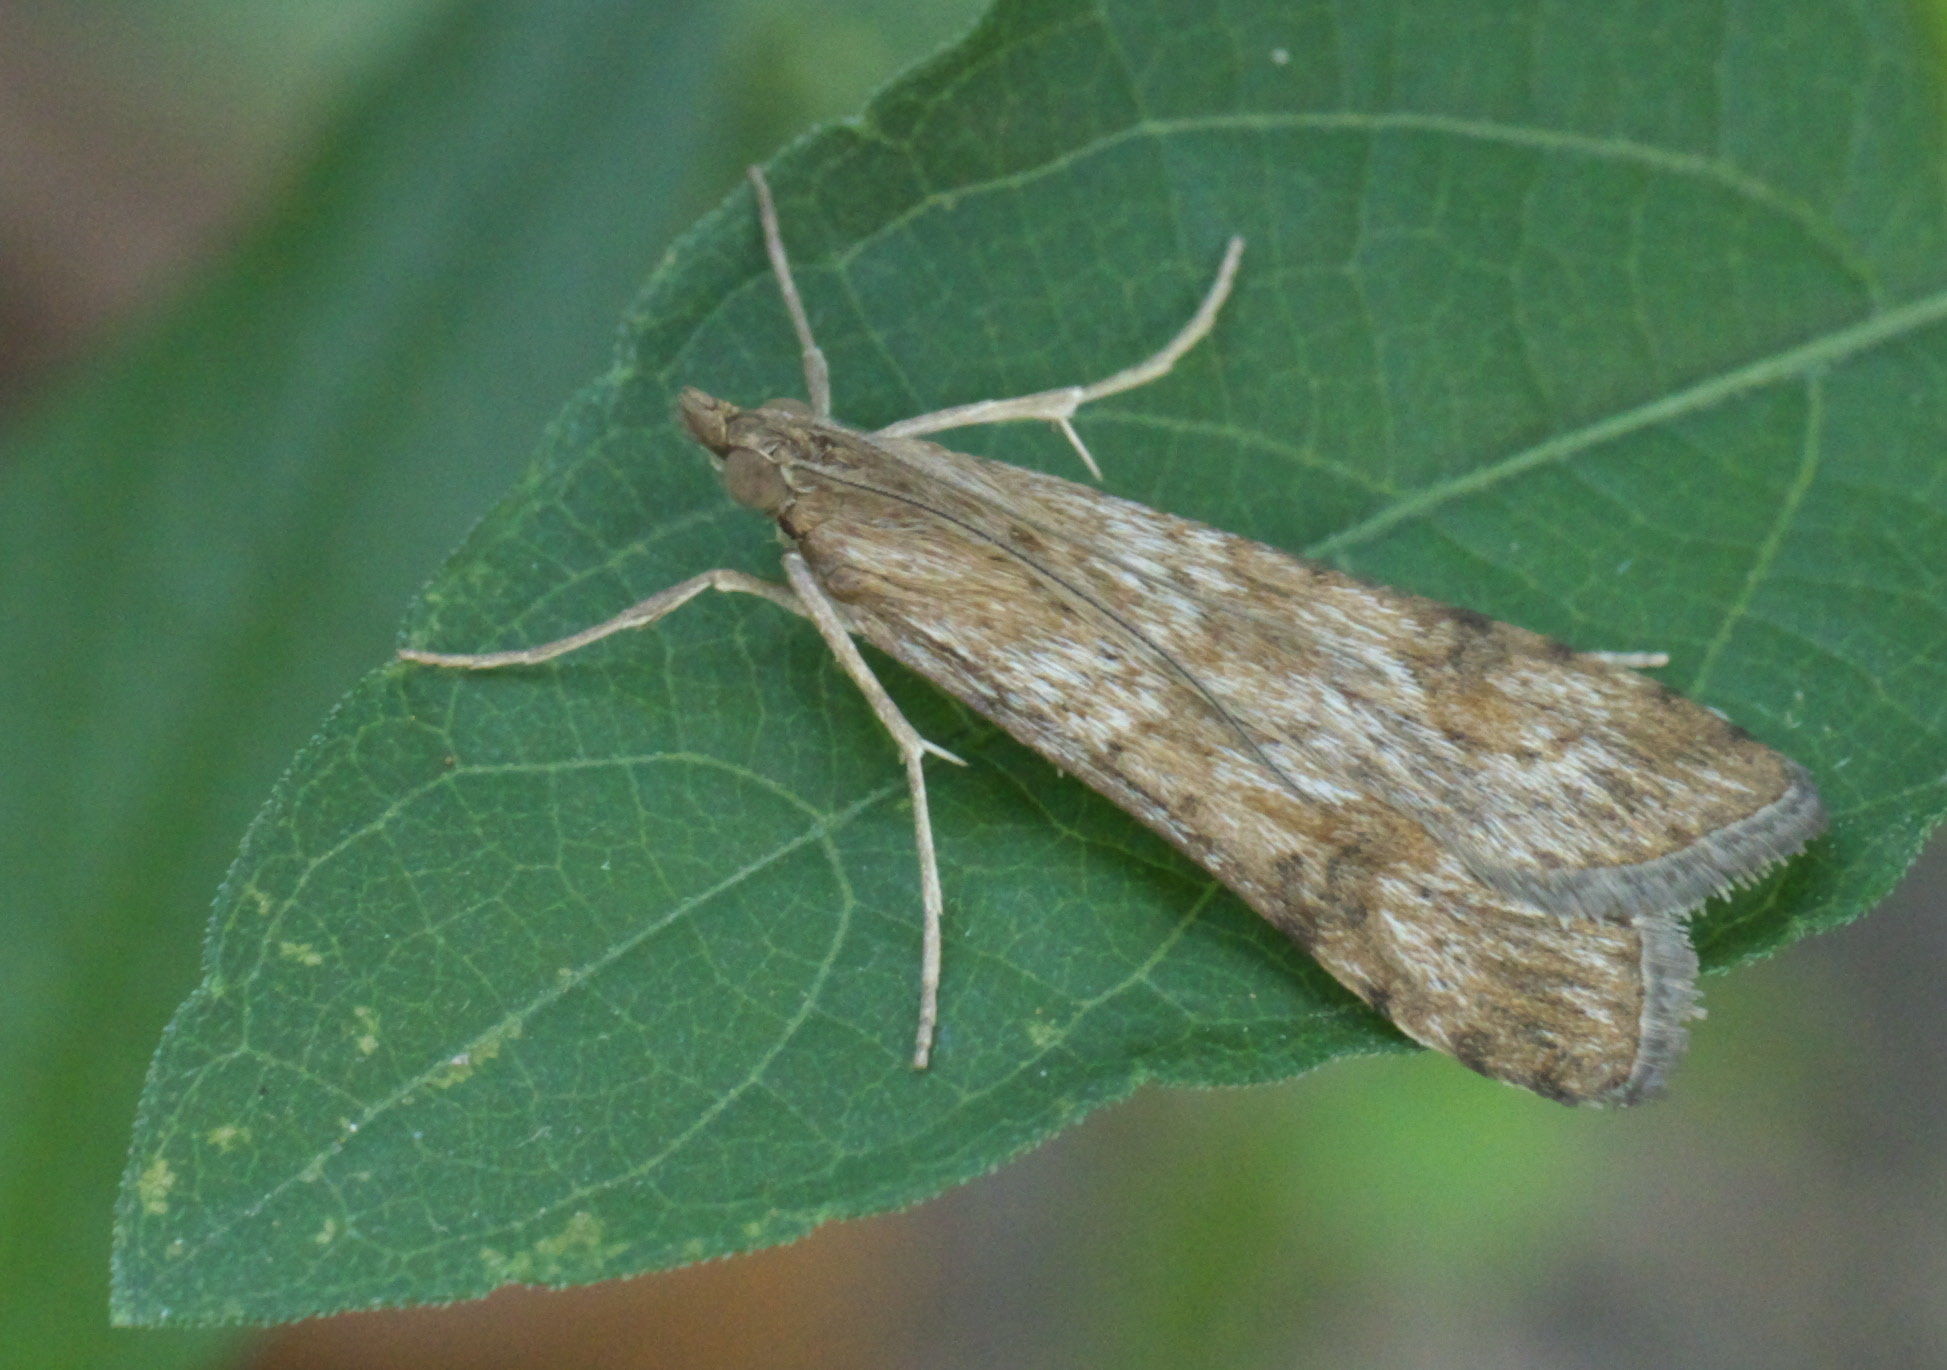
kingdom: Animalia
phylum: Arthropoda
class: Insecta
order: Lepidoptera
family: Crambidae
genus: Nomophila
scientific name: Nomophila nearctica
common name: American rush veneer
